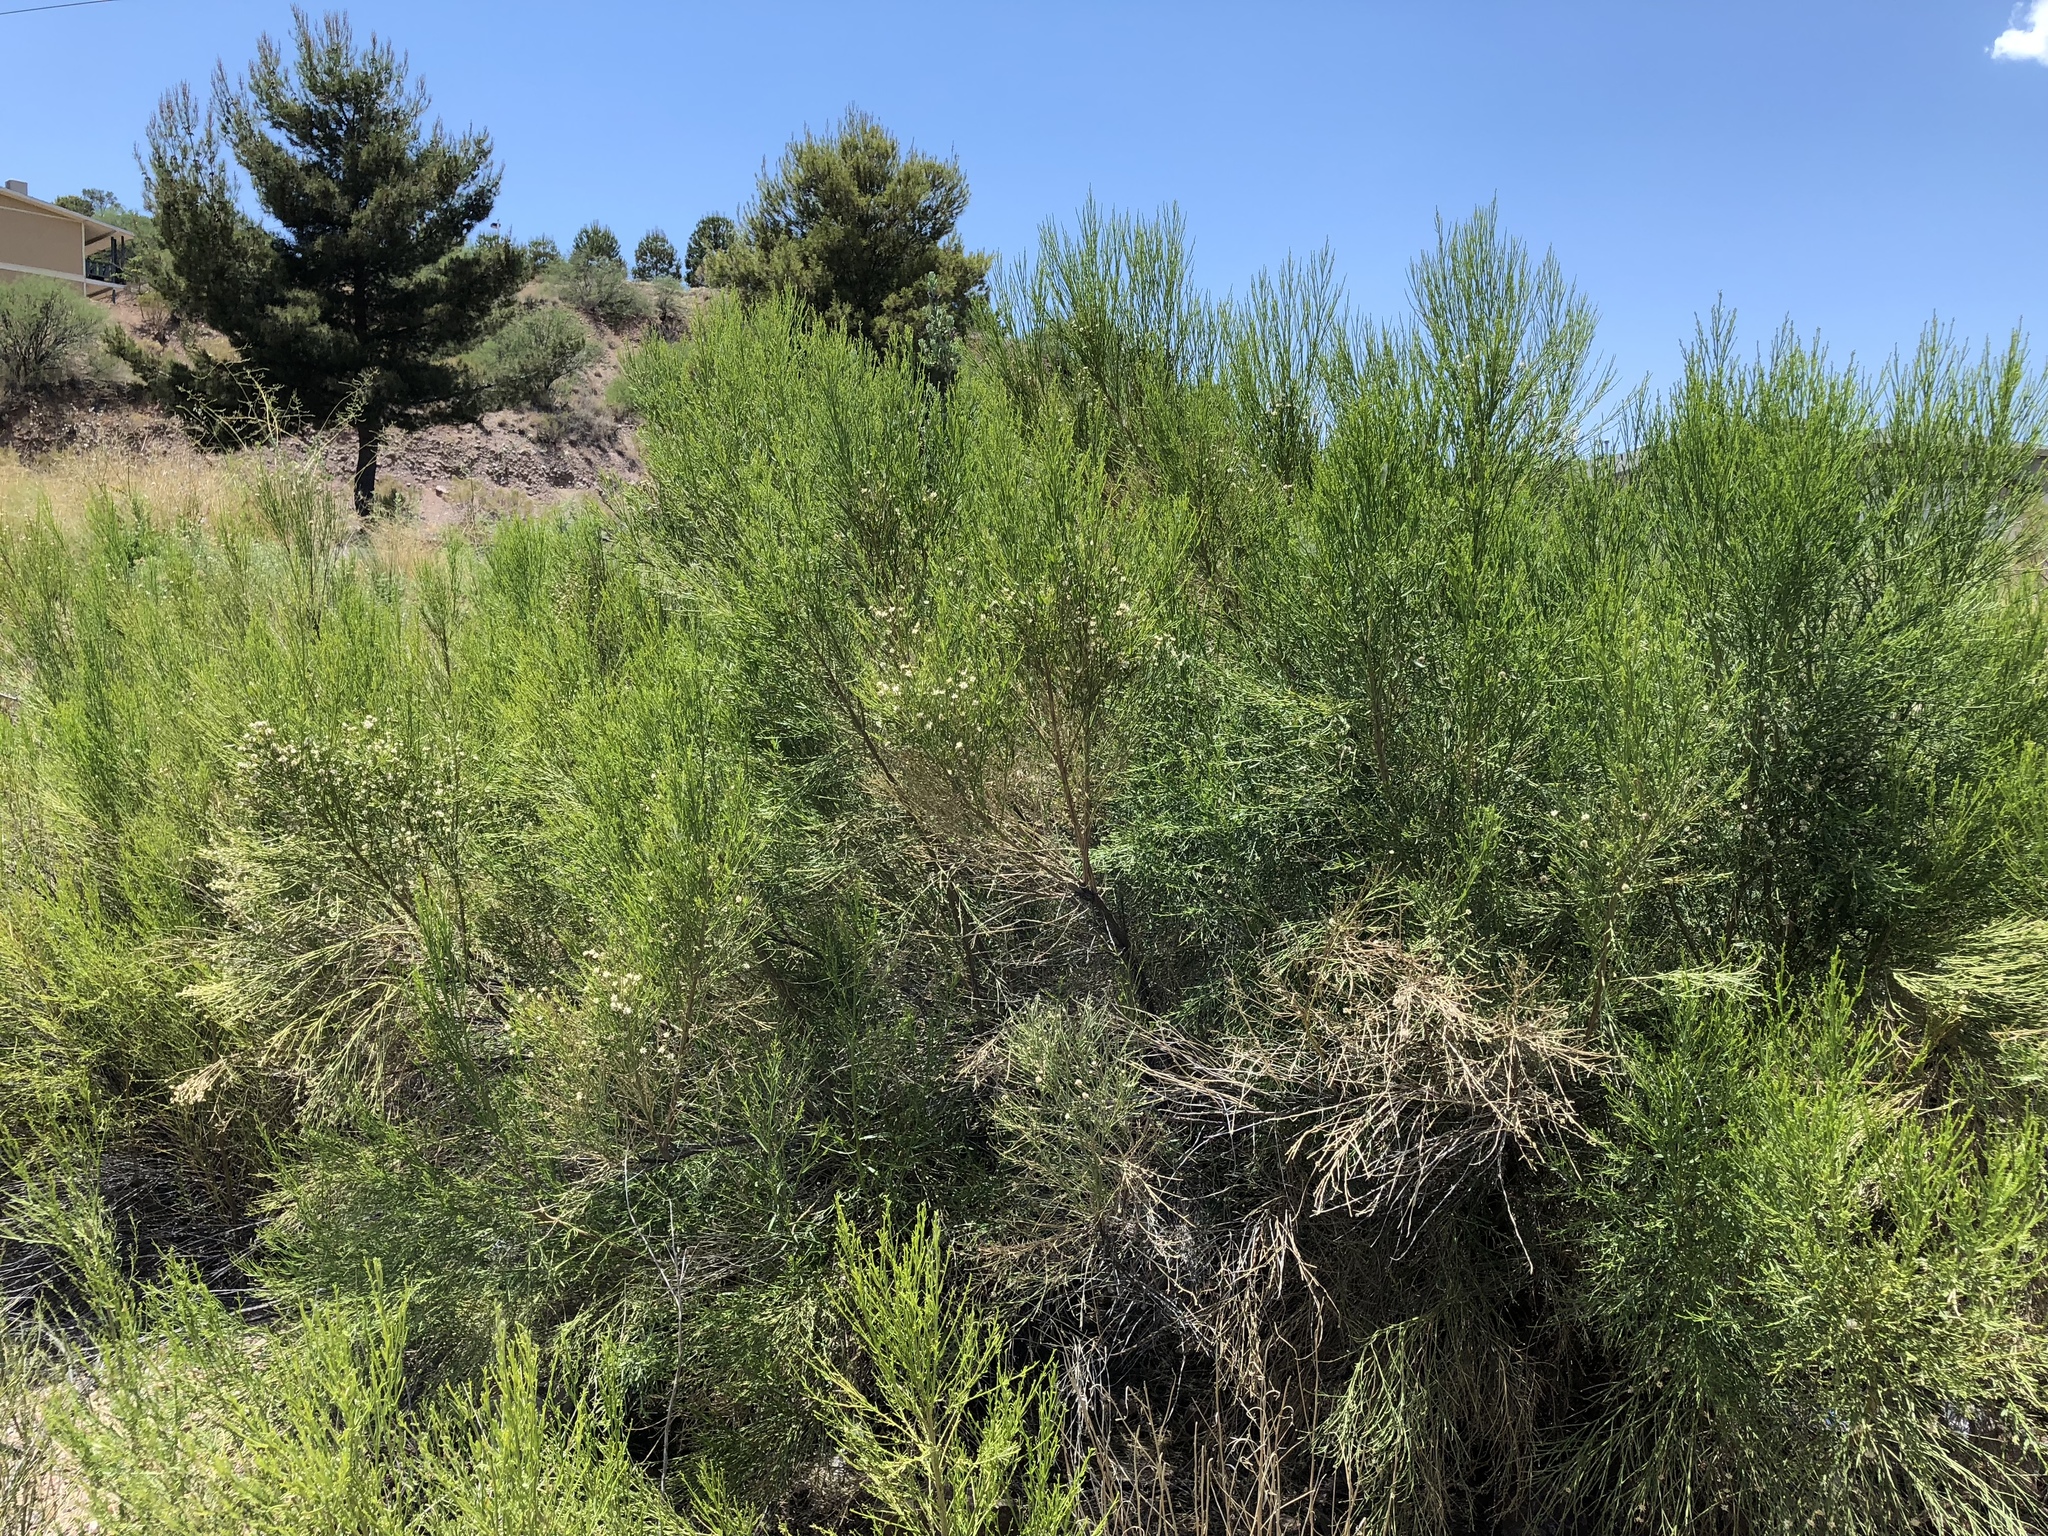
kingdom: Plantae
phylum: Tracheophyta
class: Magnoliopsida
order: Asterales
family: Asteraceae
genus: Baccharis
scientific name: Baccharis sarothroides
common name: Desert-broom
